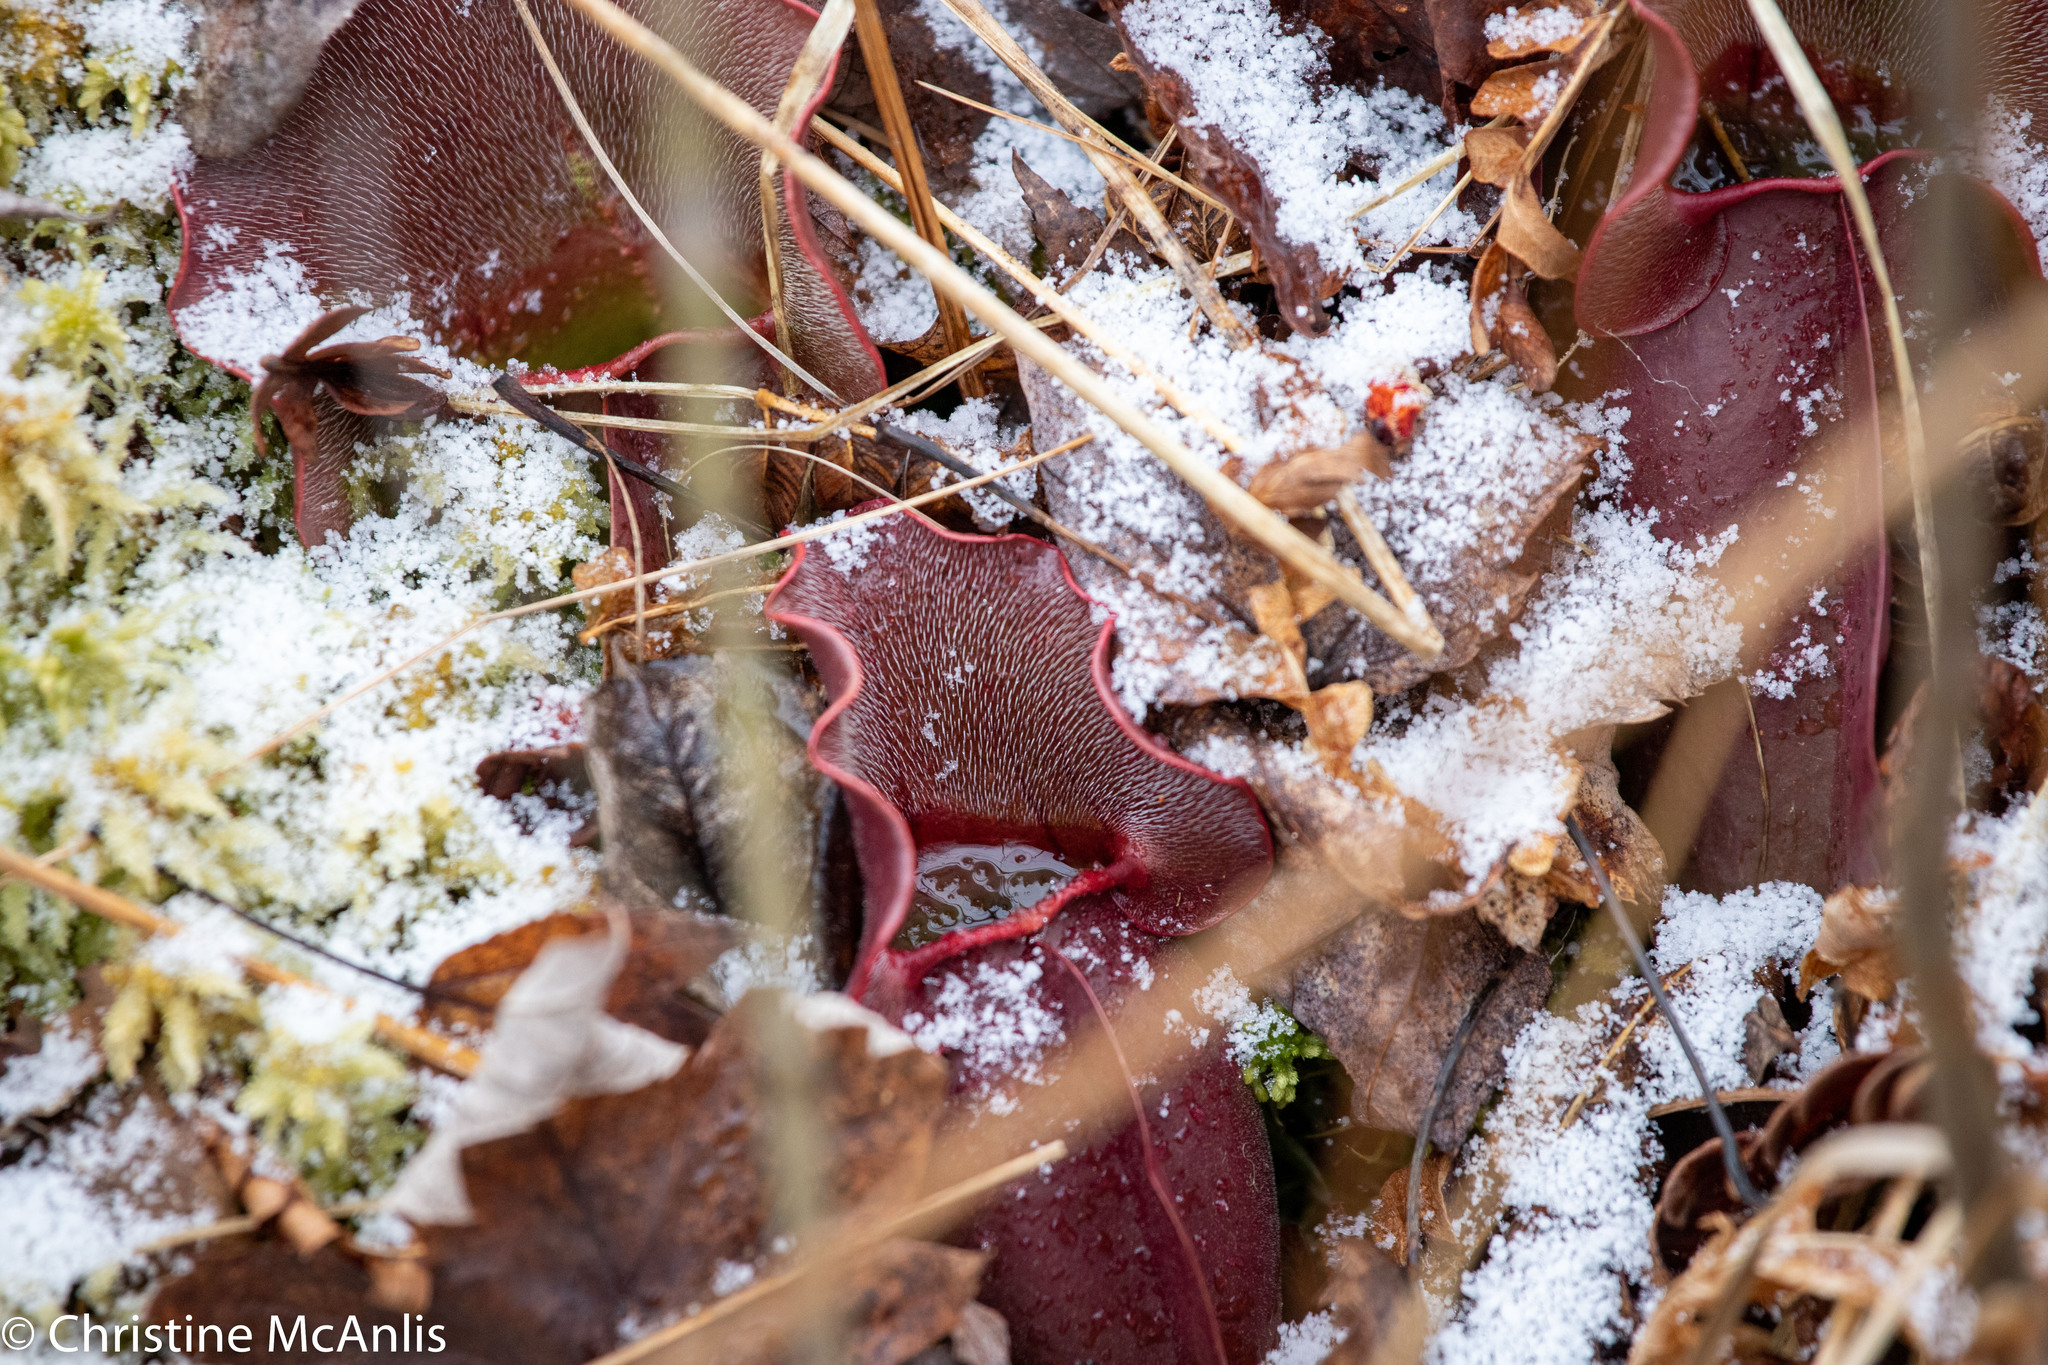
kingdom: Plantae
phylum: Tracheophyta
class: Magnoliopsida
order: Ericales
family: Sarraceniaceae
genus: Sarracenia
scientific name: Sarracenia purpurea
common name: Pitcherplant
